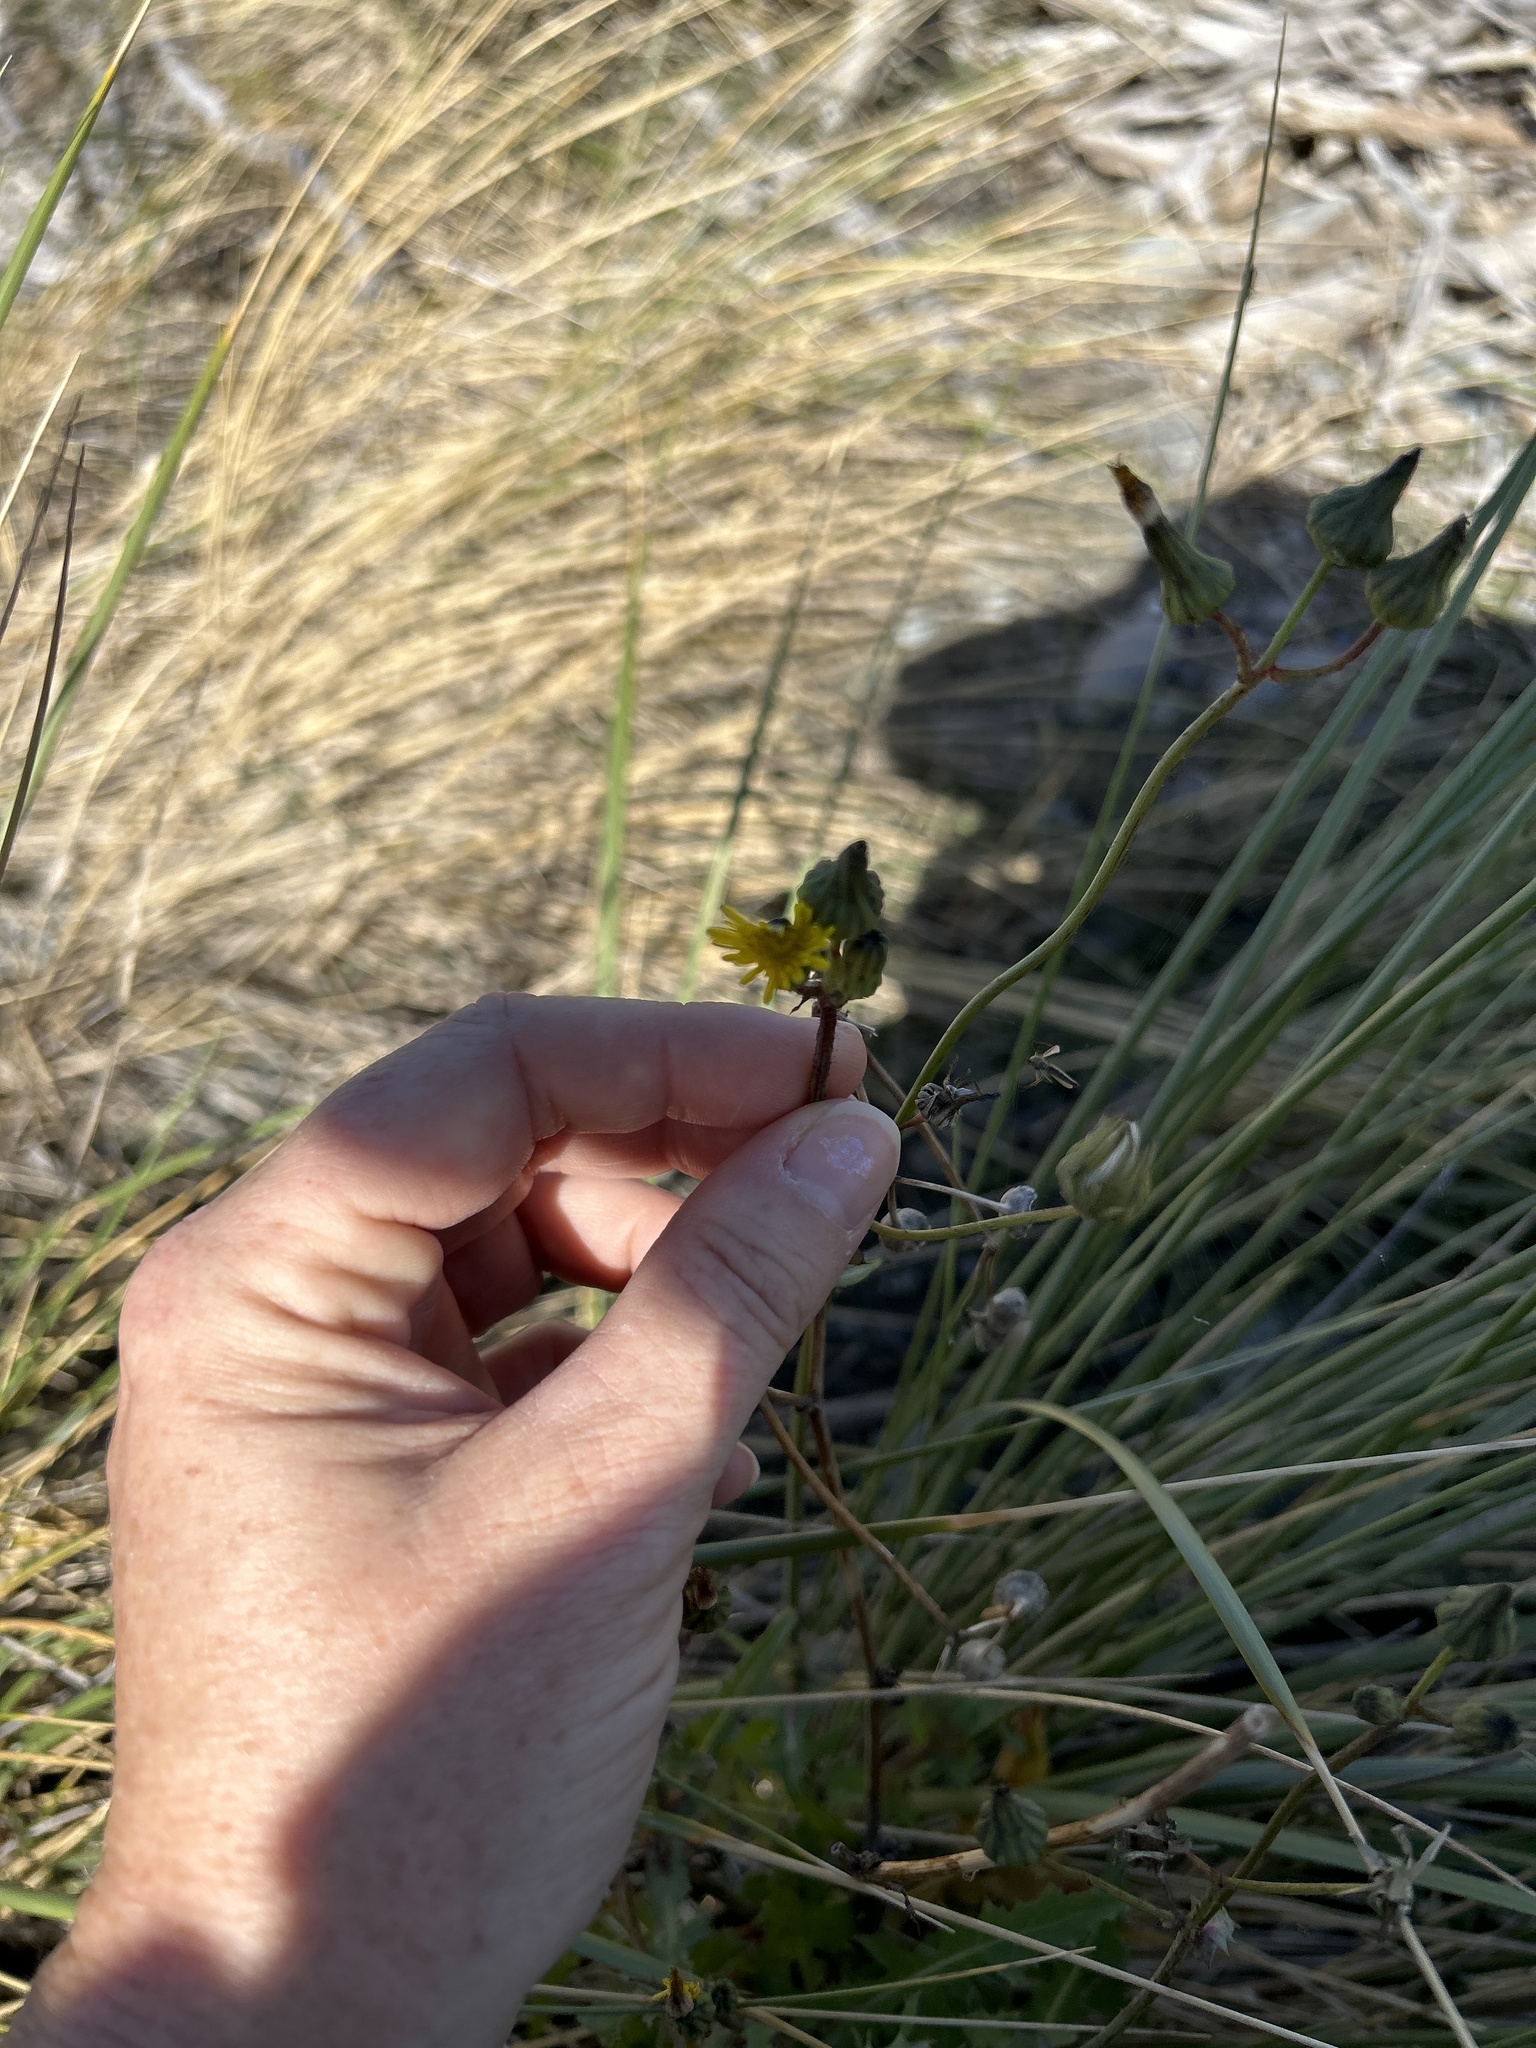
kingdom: Plantae
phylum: Tracheophyta
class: Magnoliopsida
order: Asterales
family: Asteraceae
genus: Sonchus
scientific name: Sonchus oleraceus
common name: Common sowthistle
